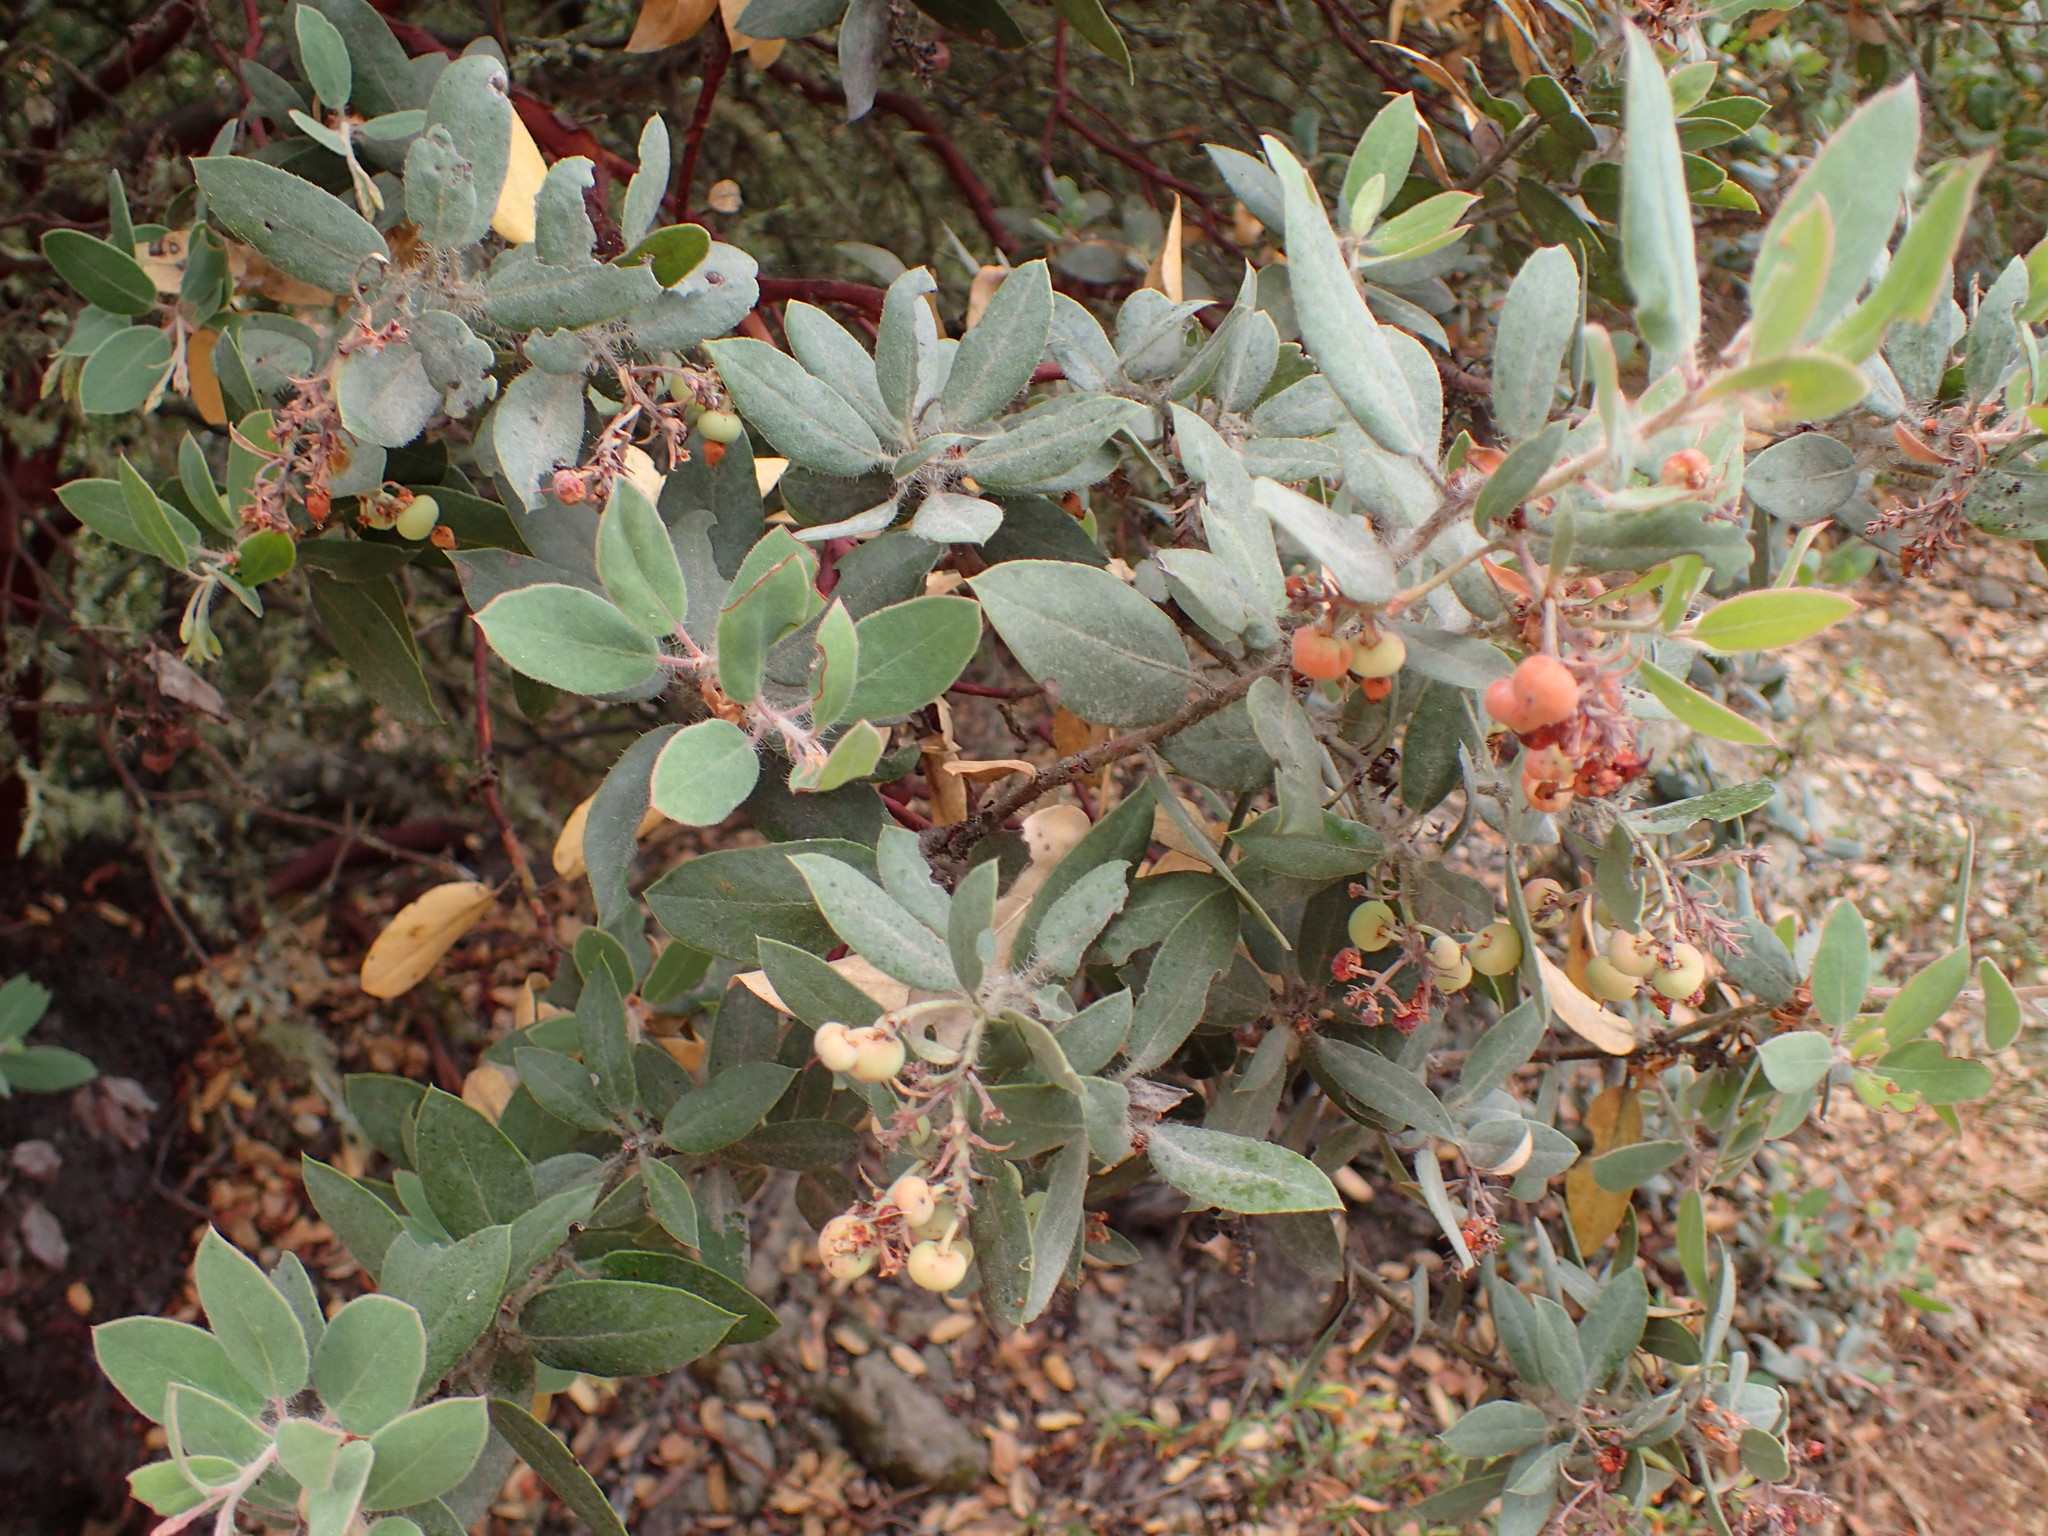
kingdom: Plantae
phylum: Tracheophyta
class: Magnoliopsida
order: Ericales
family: Ericaceae
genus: Arctostaphylos
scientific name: Arctostaphylos crustacea
